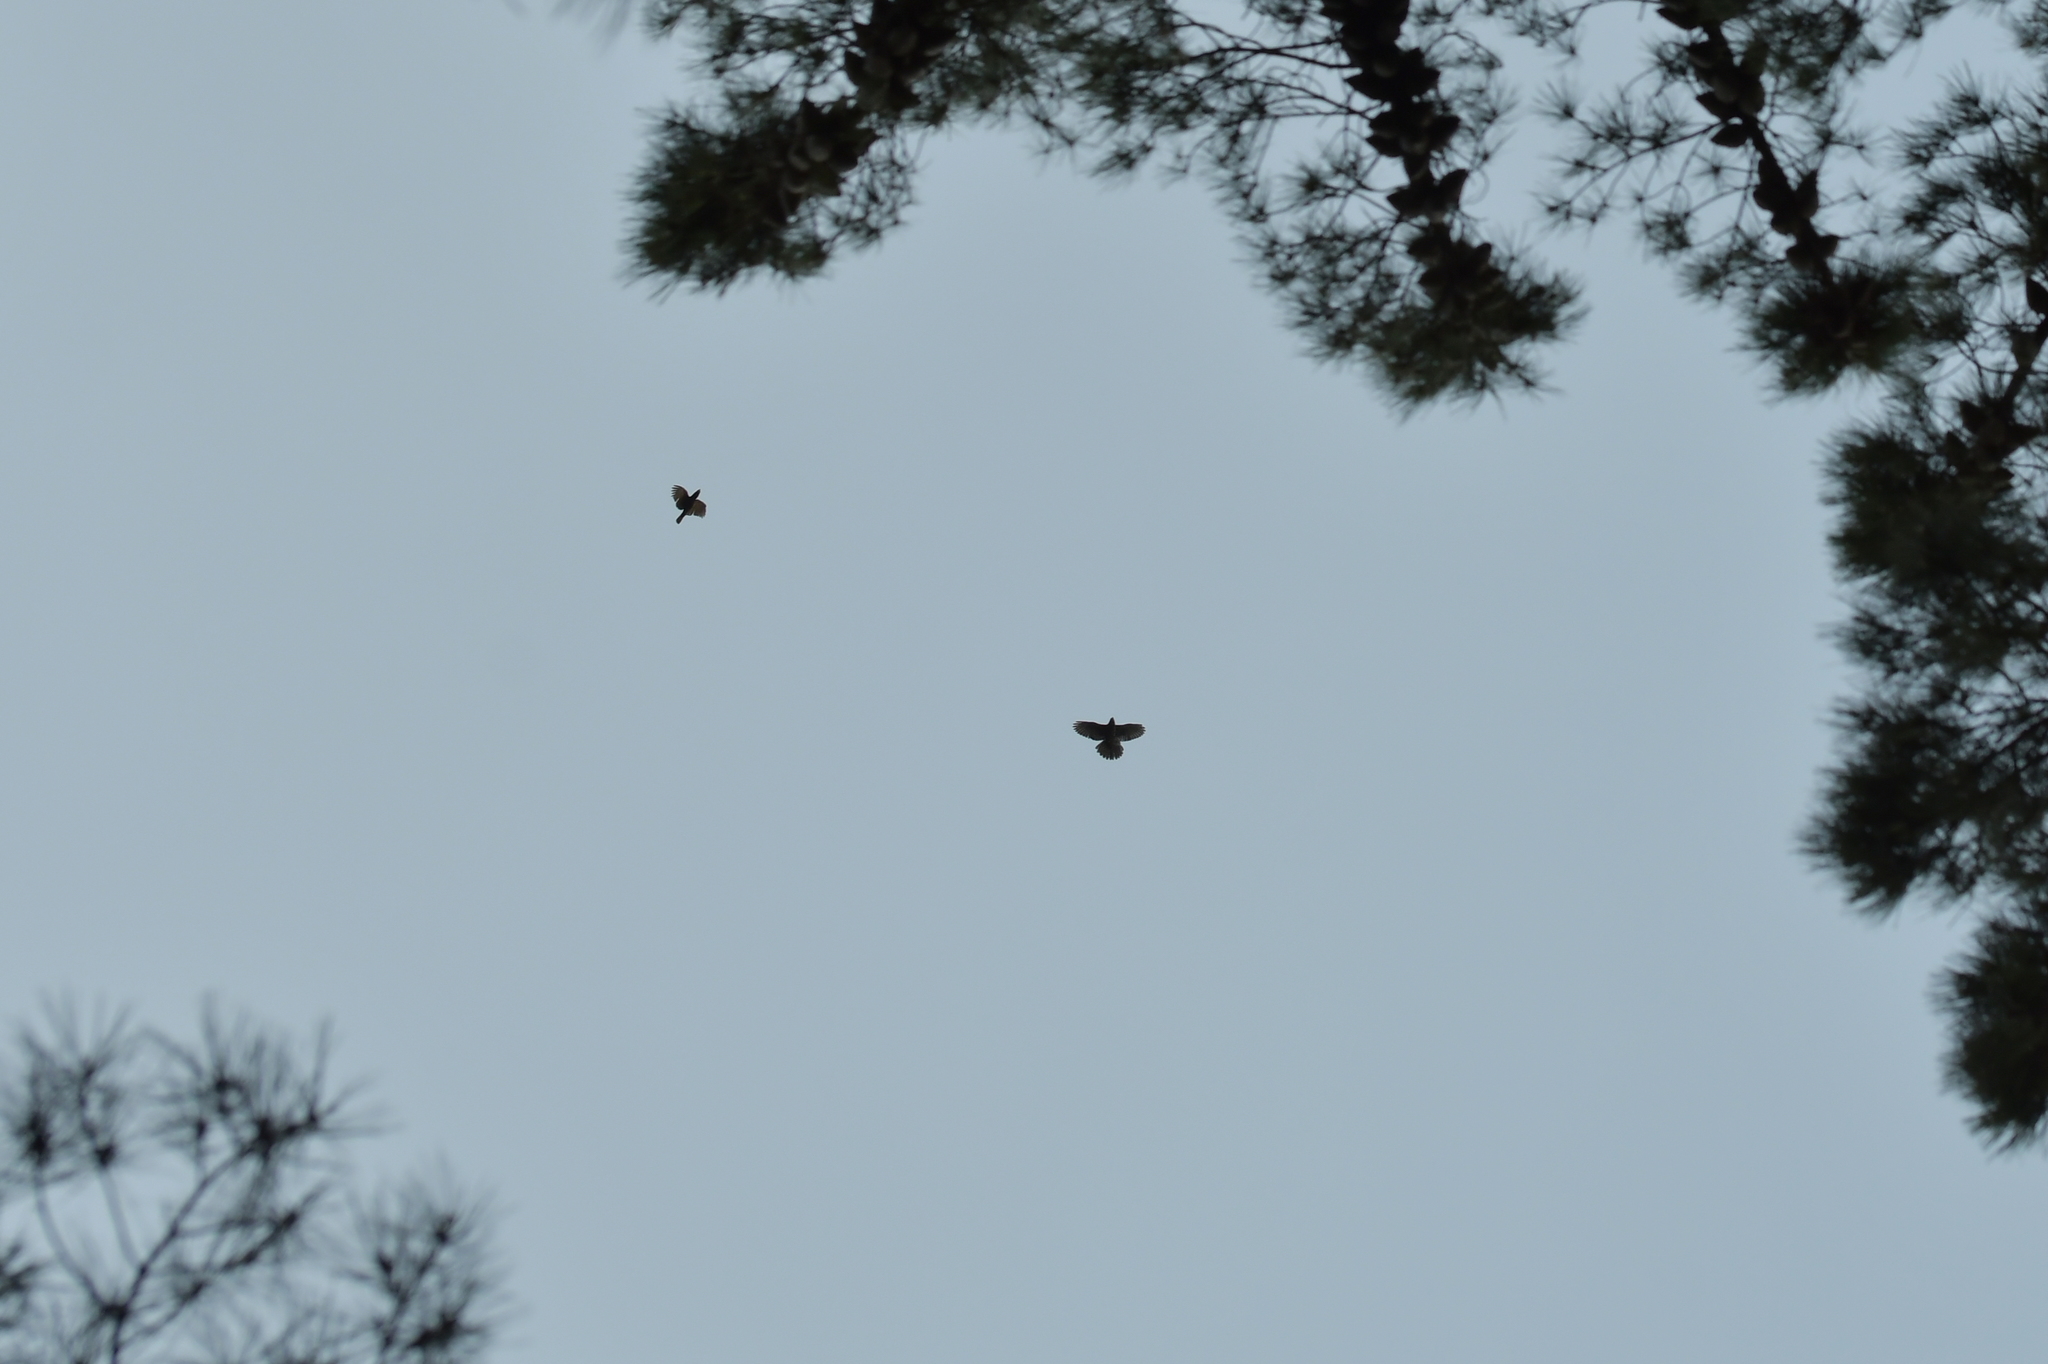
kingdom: Animalia
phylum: Chordata
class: Aves
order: Falconiformes
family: Falconidae
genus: Falco
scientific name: Falco novaeseelandiae
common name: New zealand falcon
